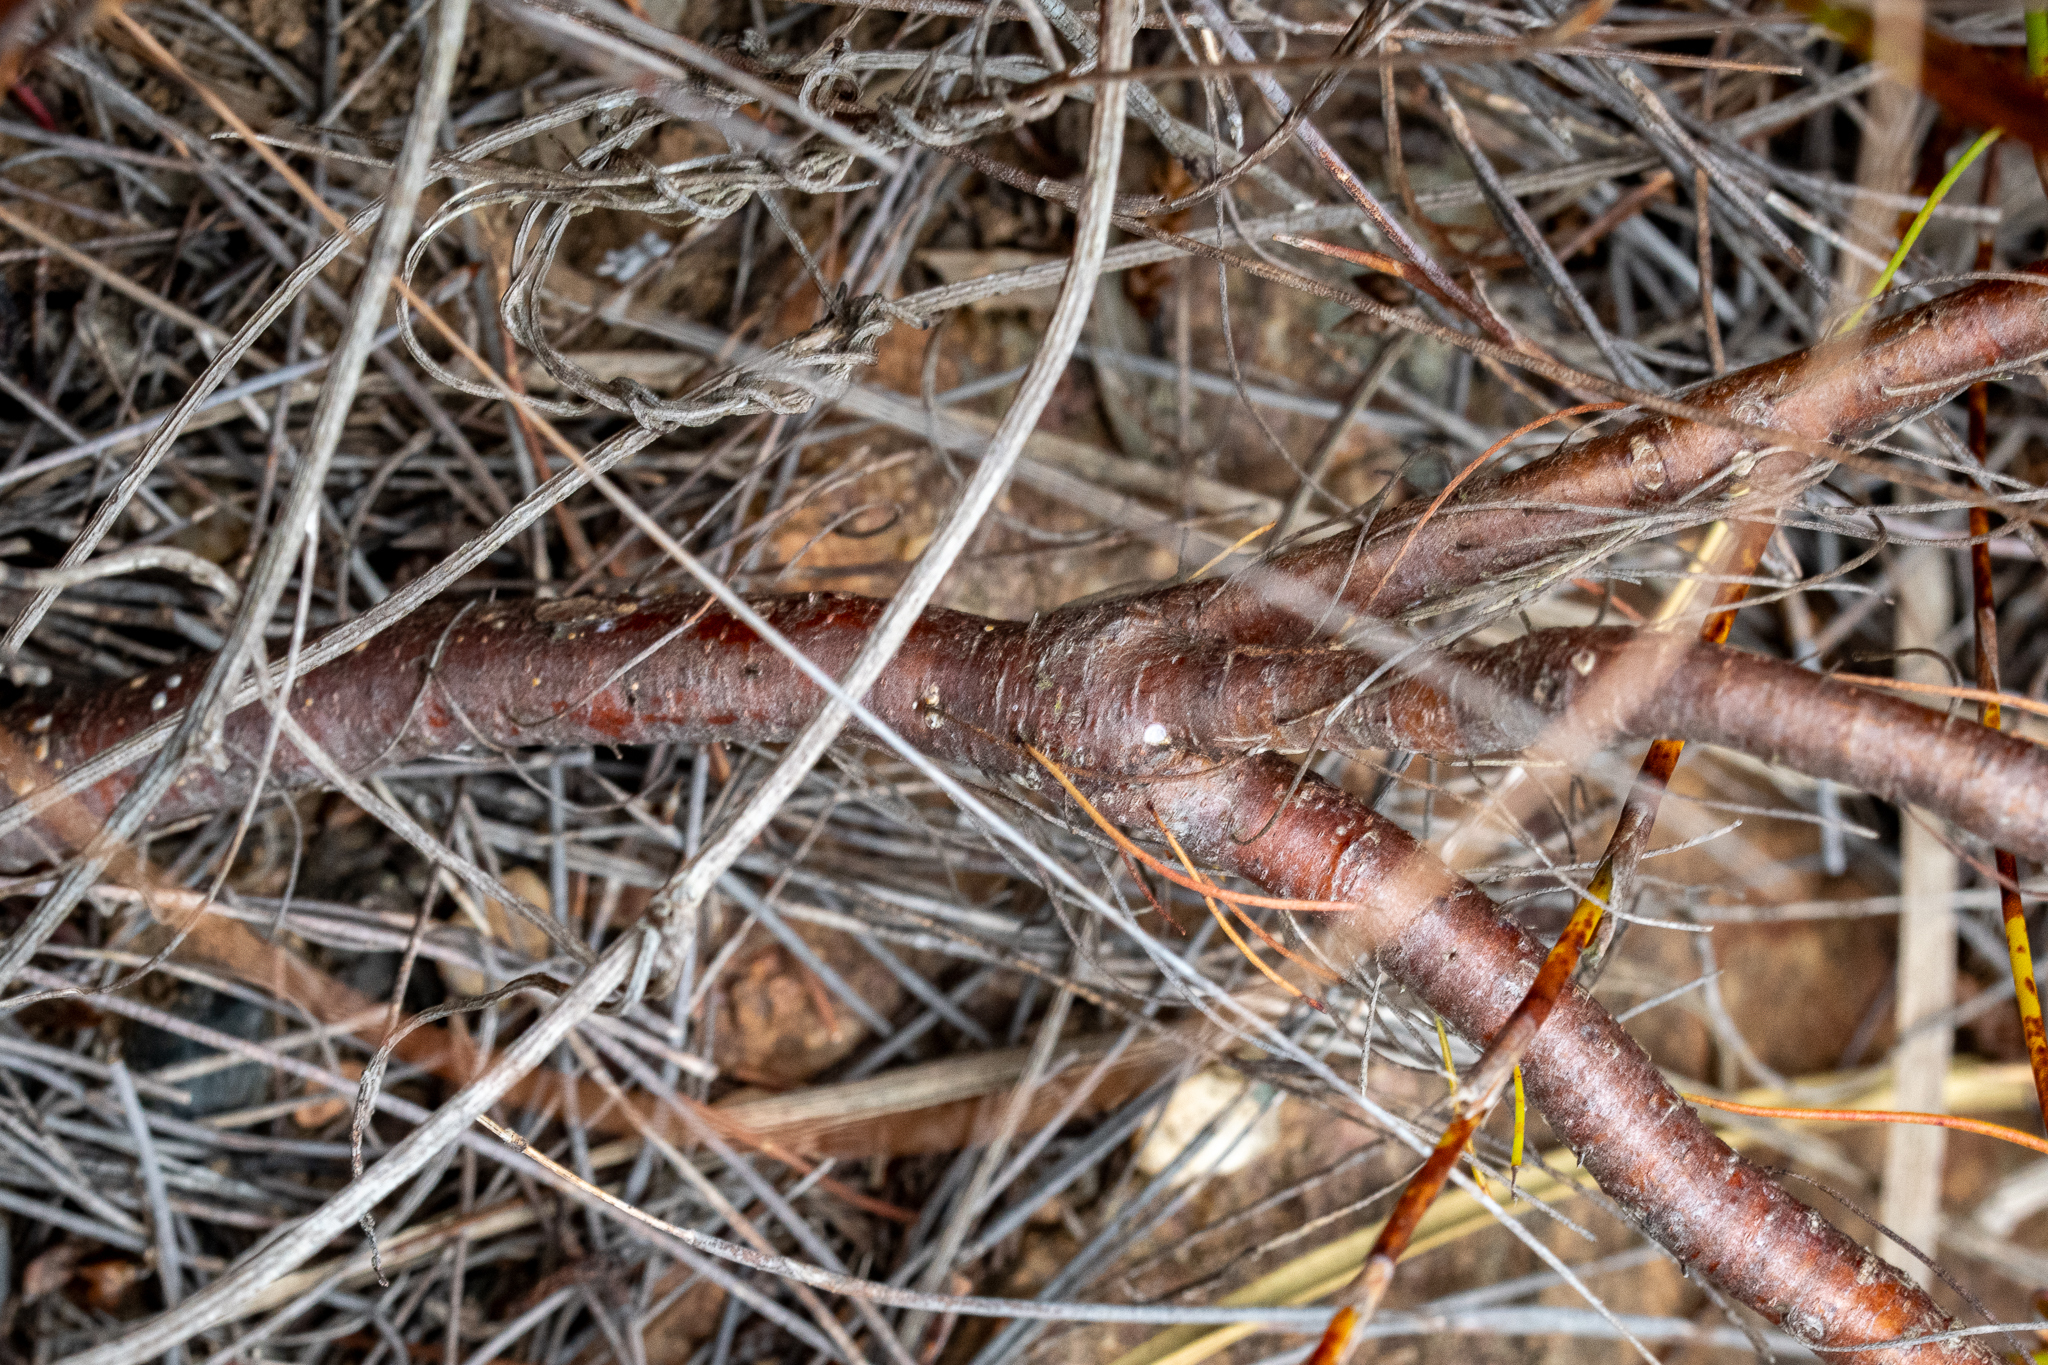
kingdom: Plantae
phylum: Tracheophyta
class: Magnoliopsida
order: Proteales
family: Proteaceae
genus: Spatalla
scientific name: Spatalla racemosa
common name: Lax-stalked spoon
